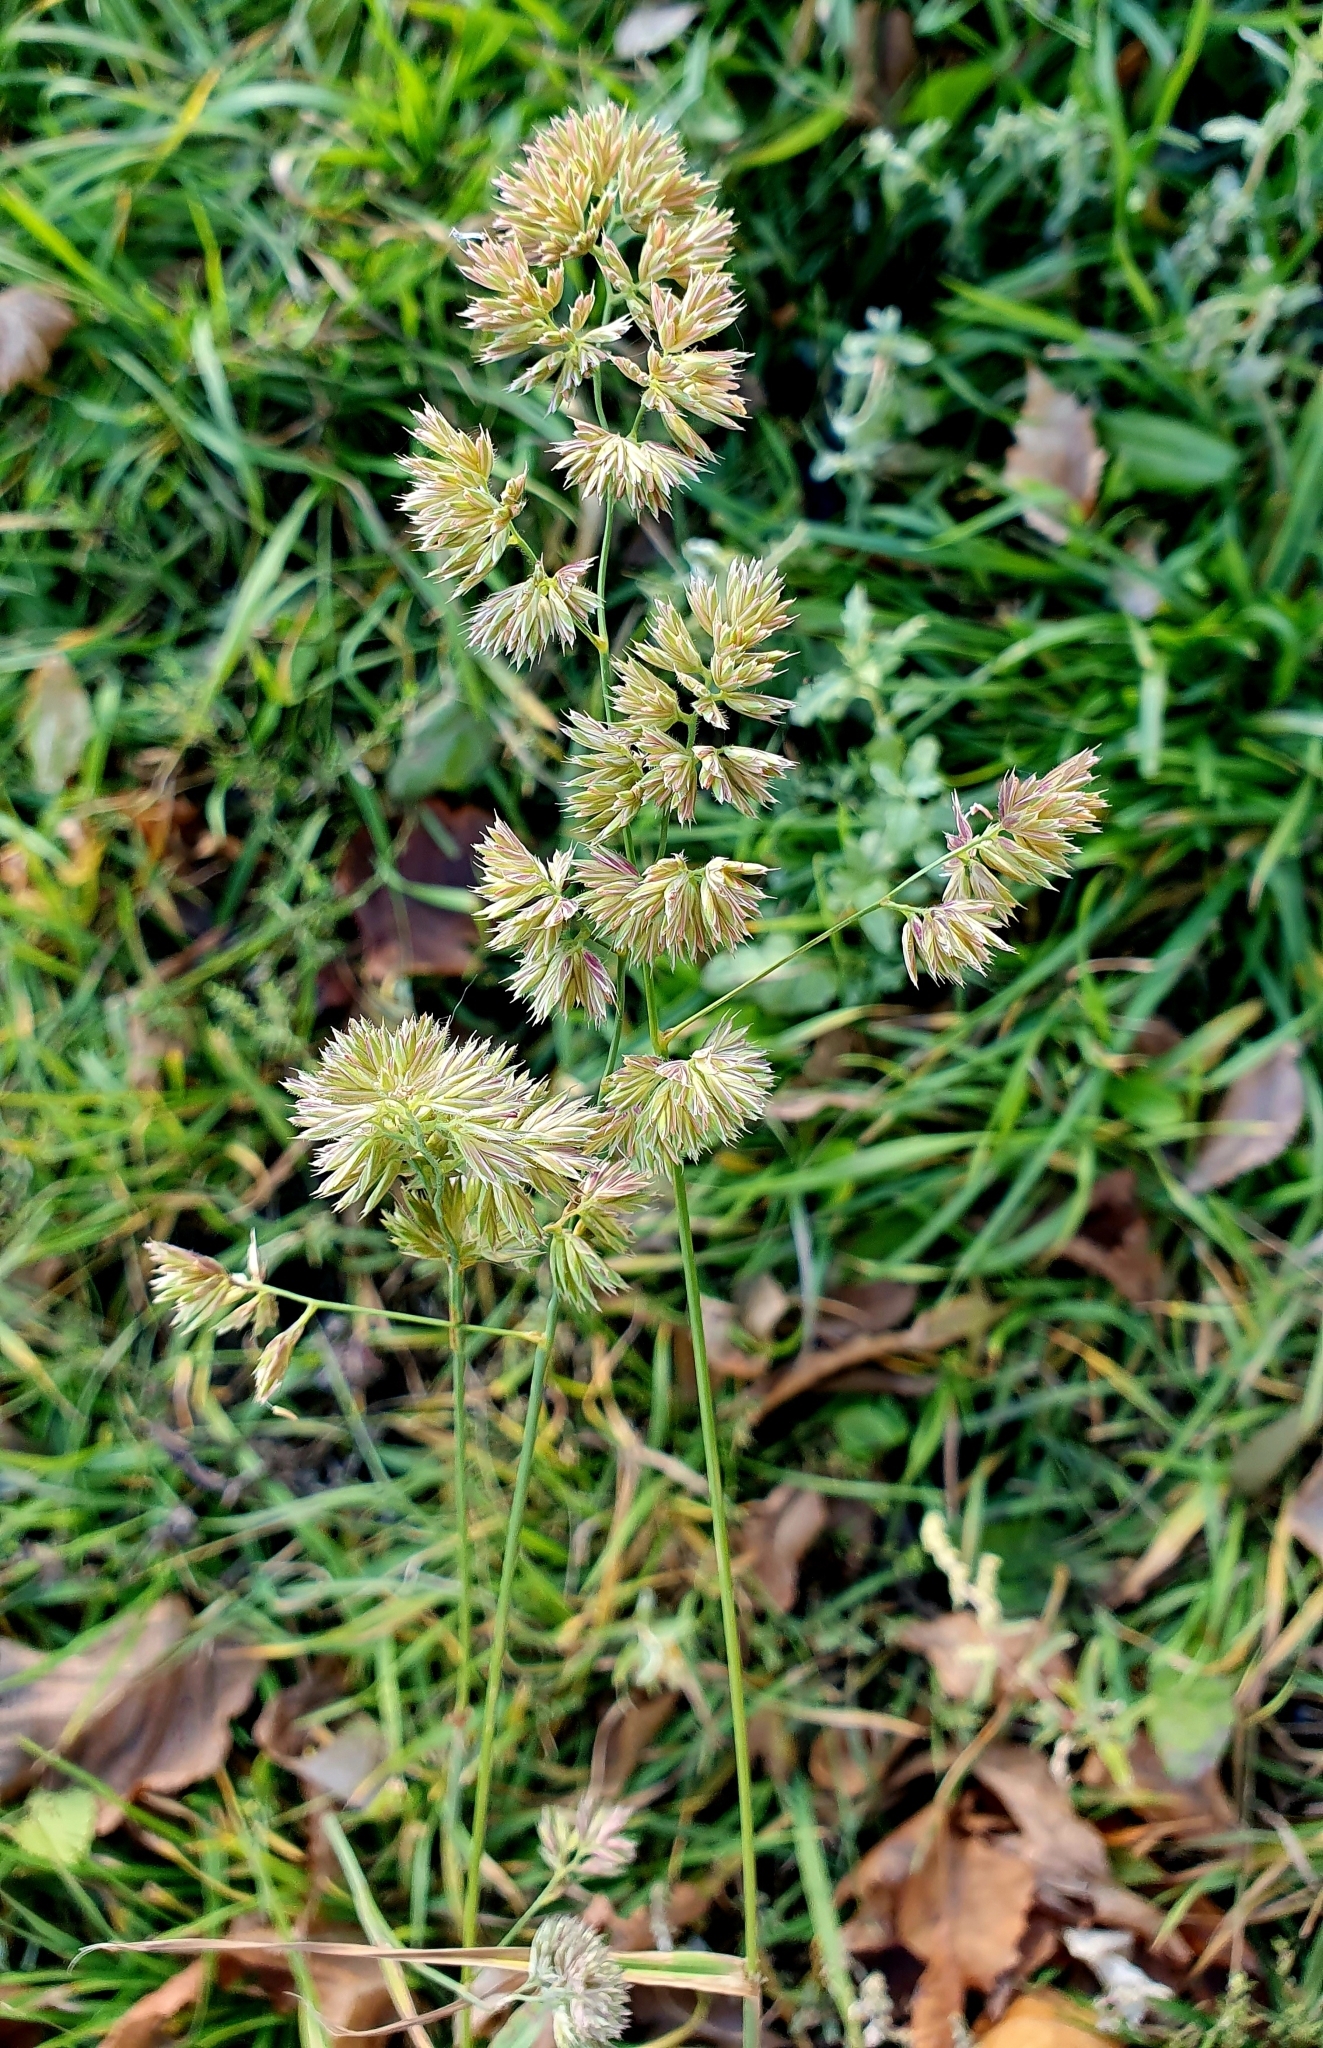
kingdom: Plantae
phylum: Tracheophyta
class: Liliopsida
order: Poales
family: Poaceae
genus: Dactylis
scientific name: Dactylis glomerata
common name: Orchardgrass
